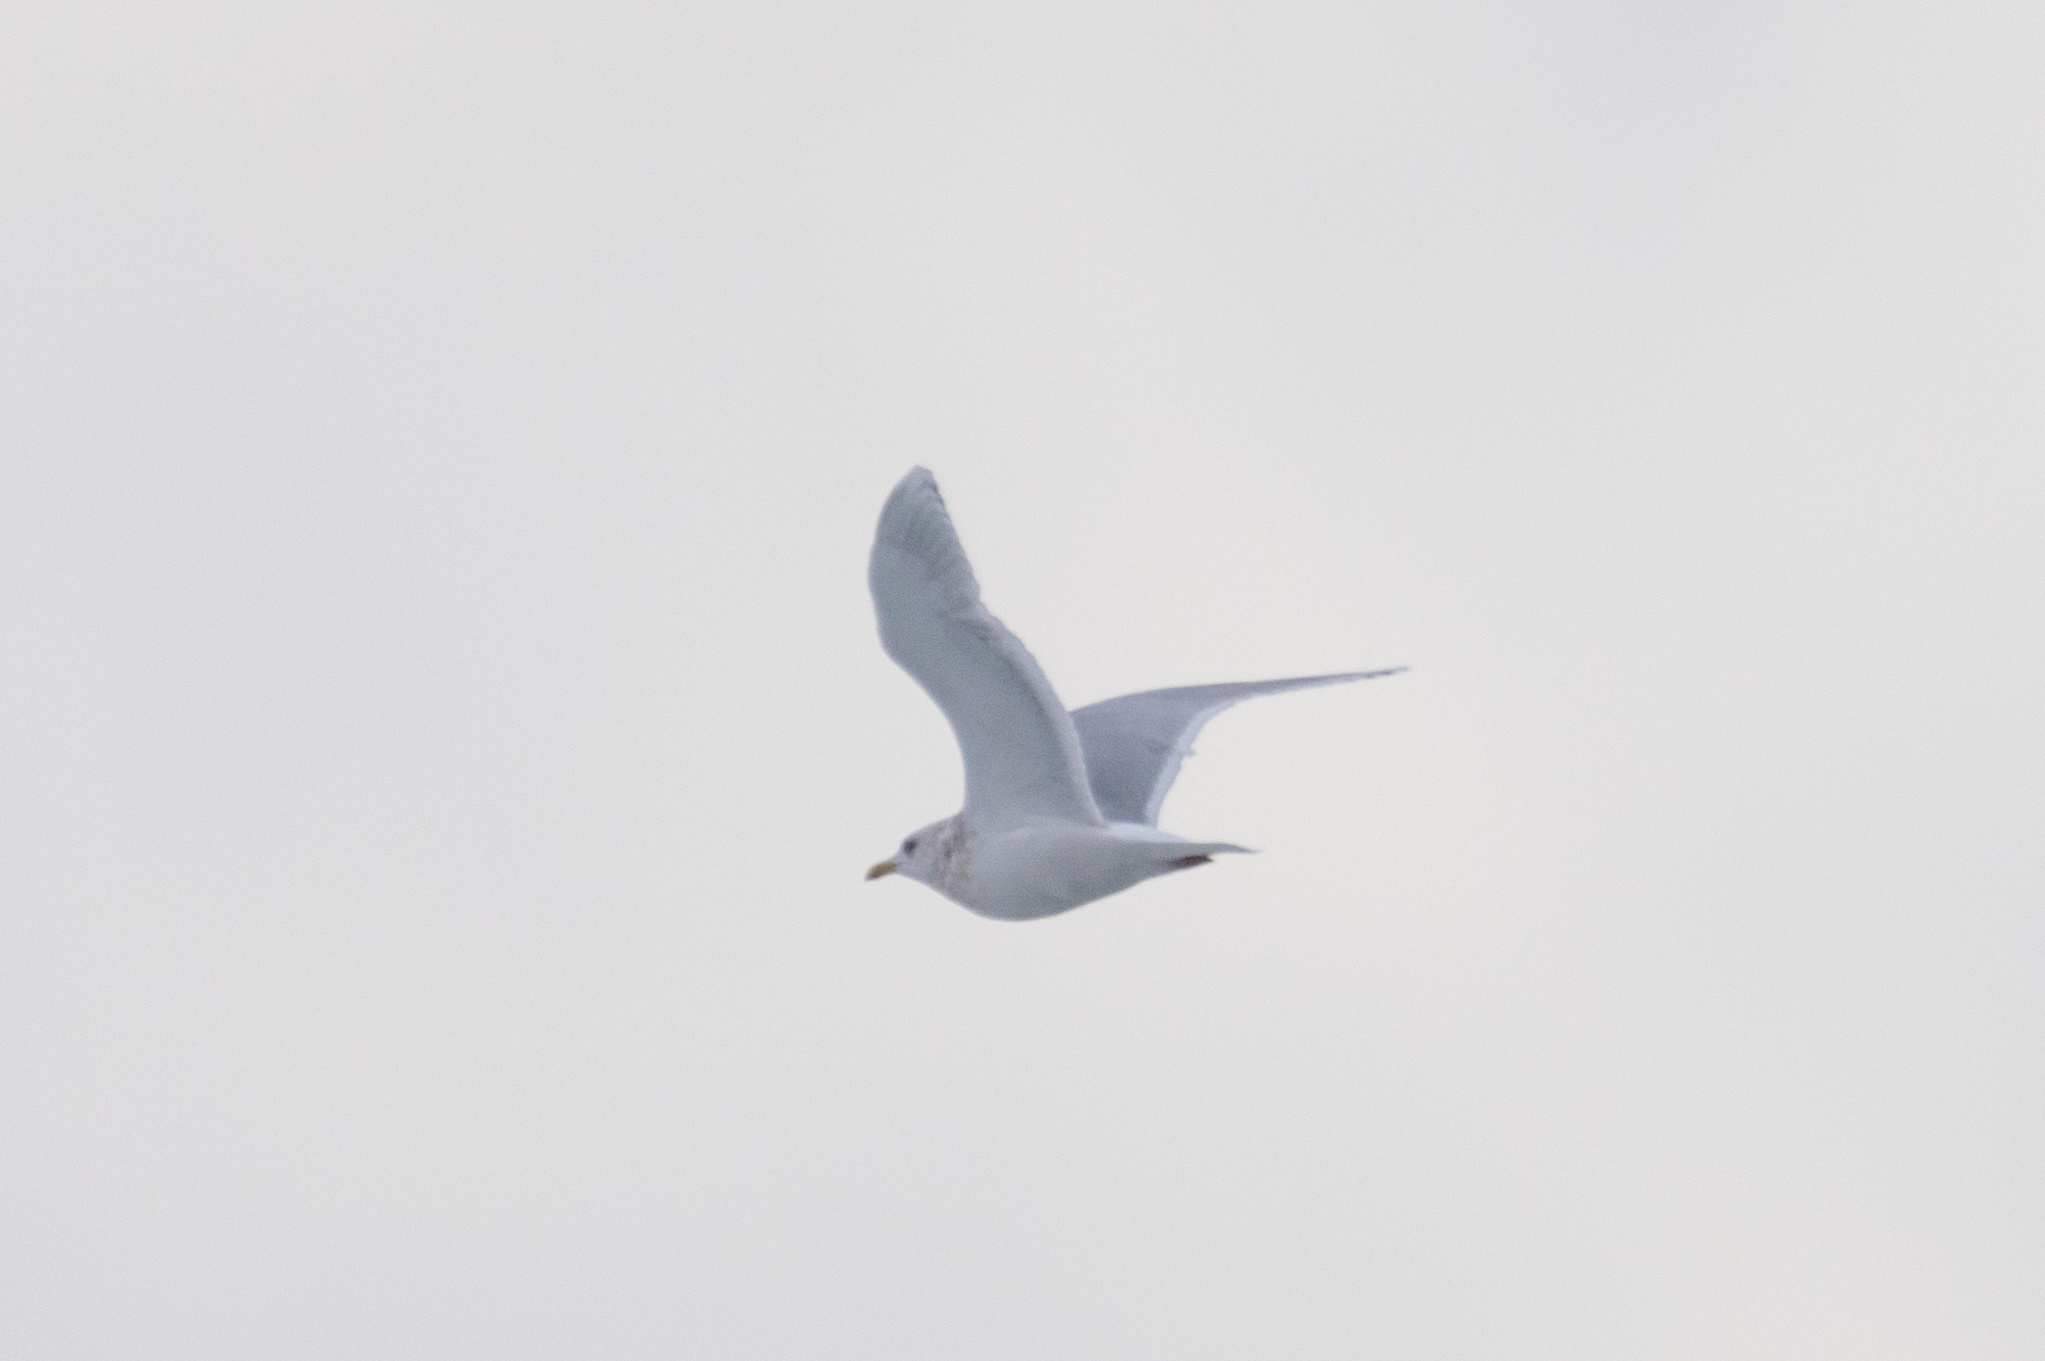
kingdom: Animalia
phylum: Chordata
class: Aves
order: Charadriiformes
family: Laridae
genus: Larus
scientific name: Larus glaucoides
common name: Iceland gull
